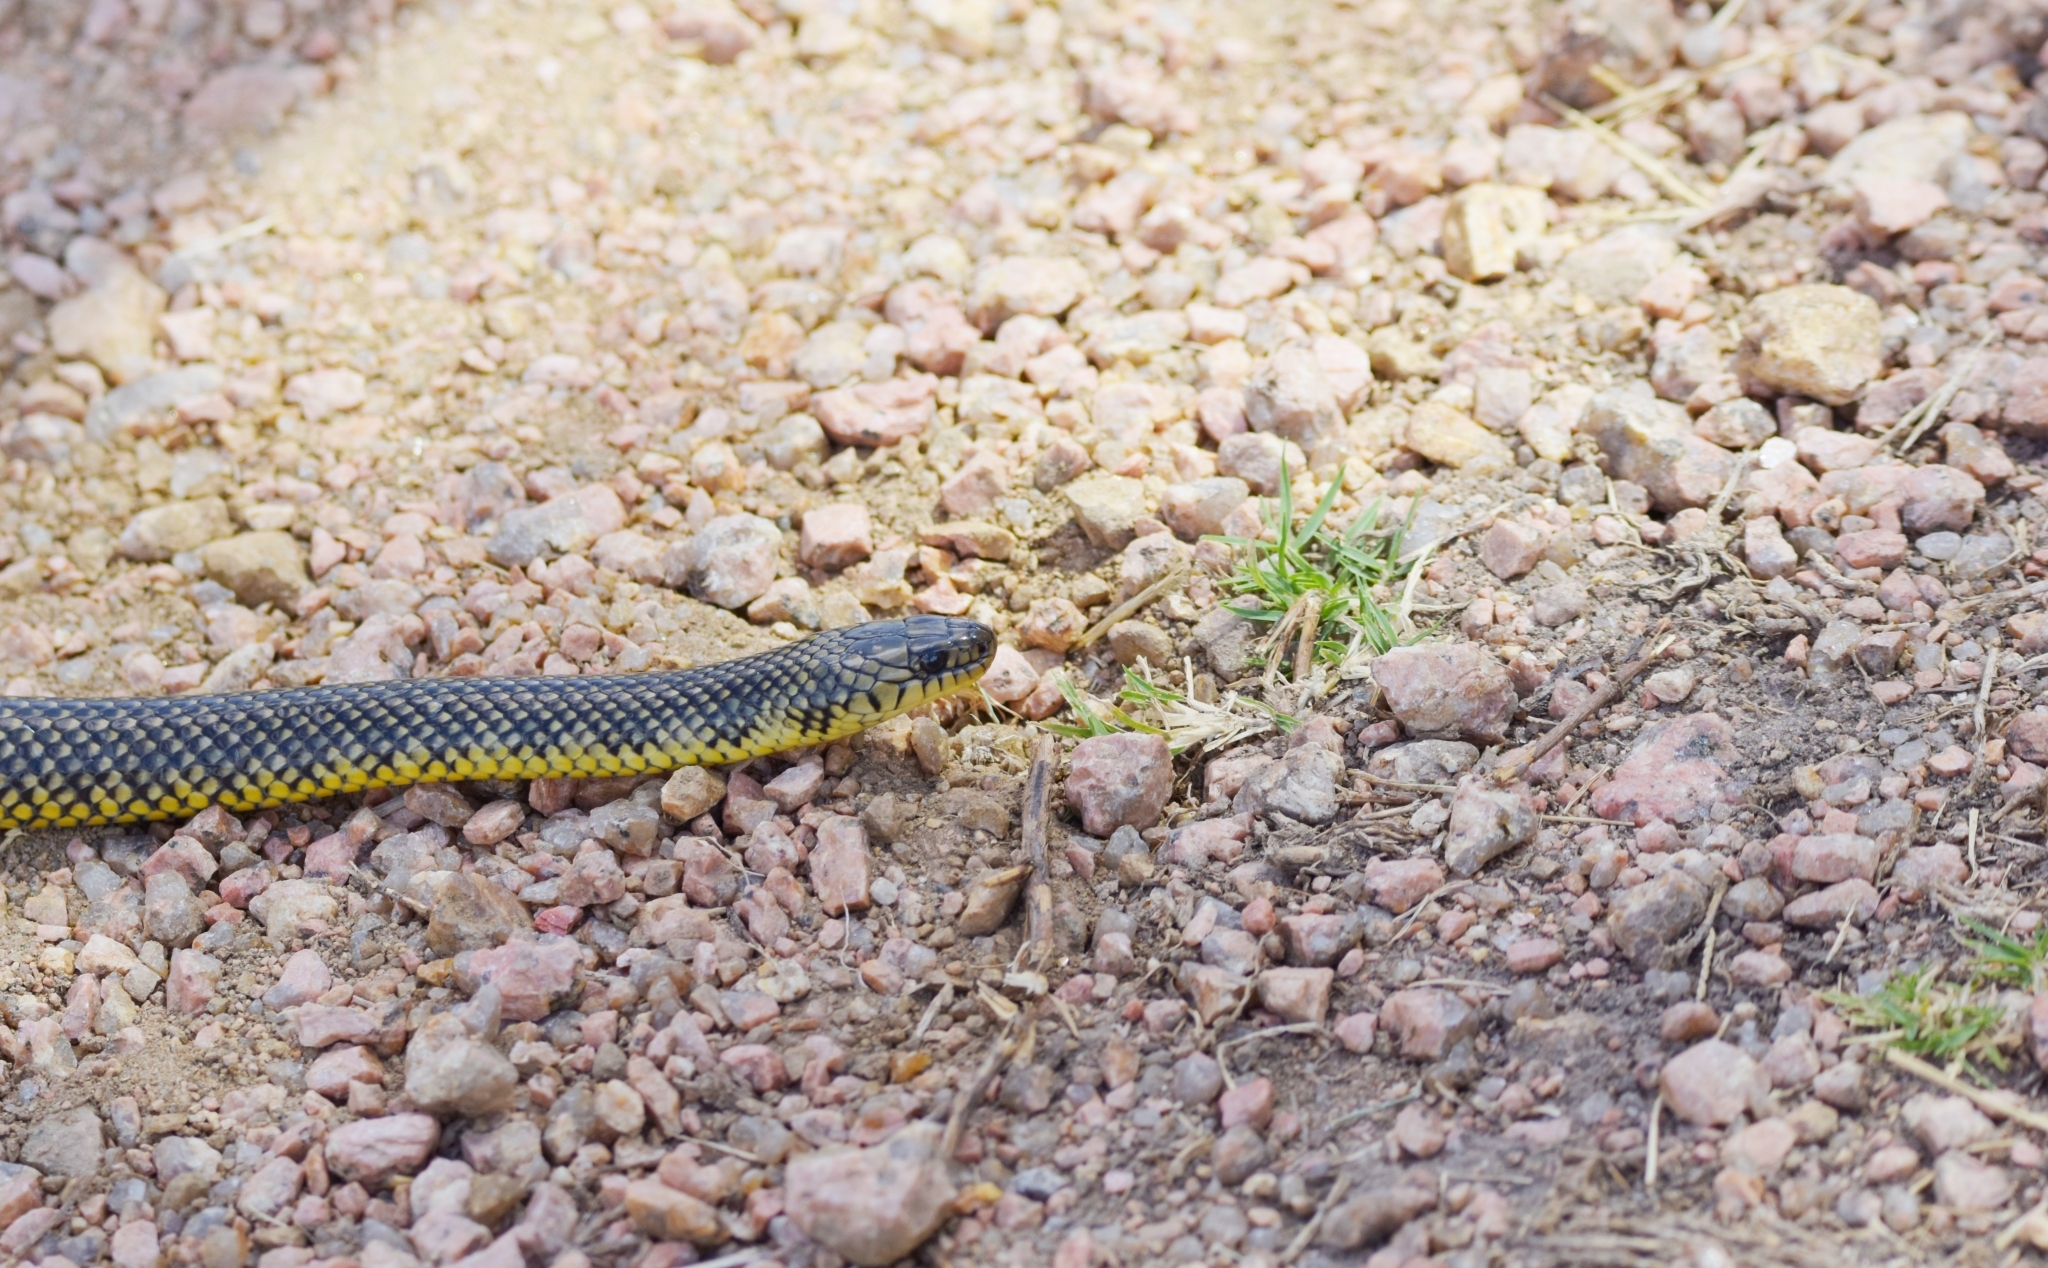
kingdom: Animalia
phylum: Chordata
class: Squamata
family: Colubridae
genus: Erythrolamprus
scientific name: Erythrolamprus semiaureus
